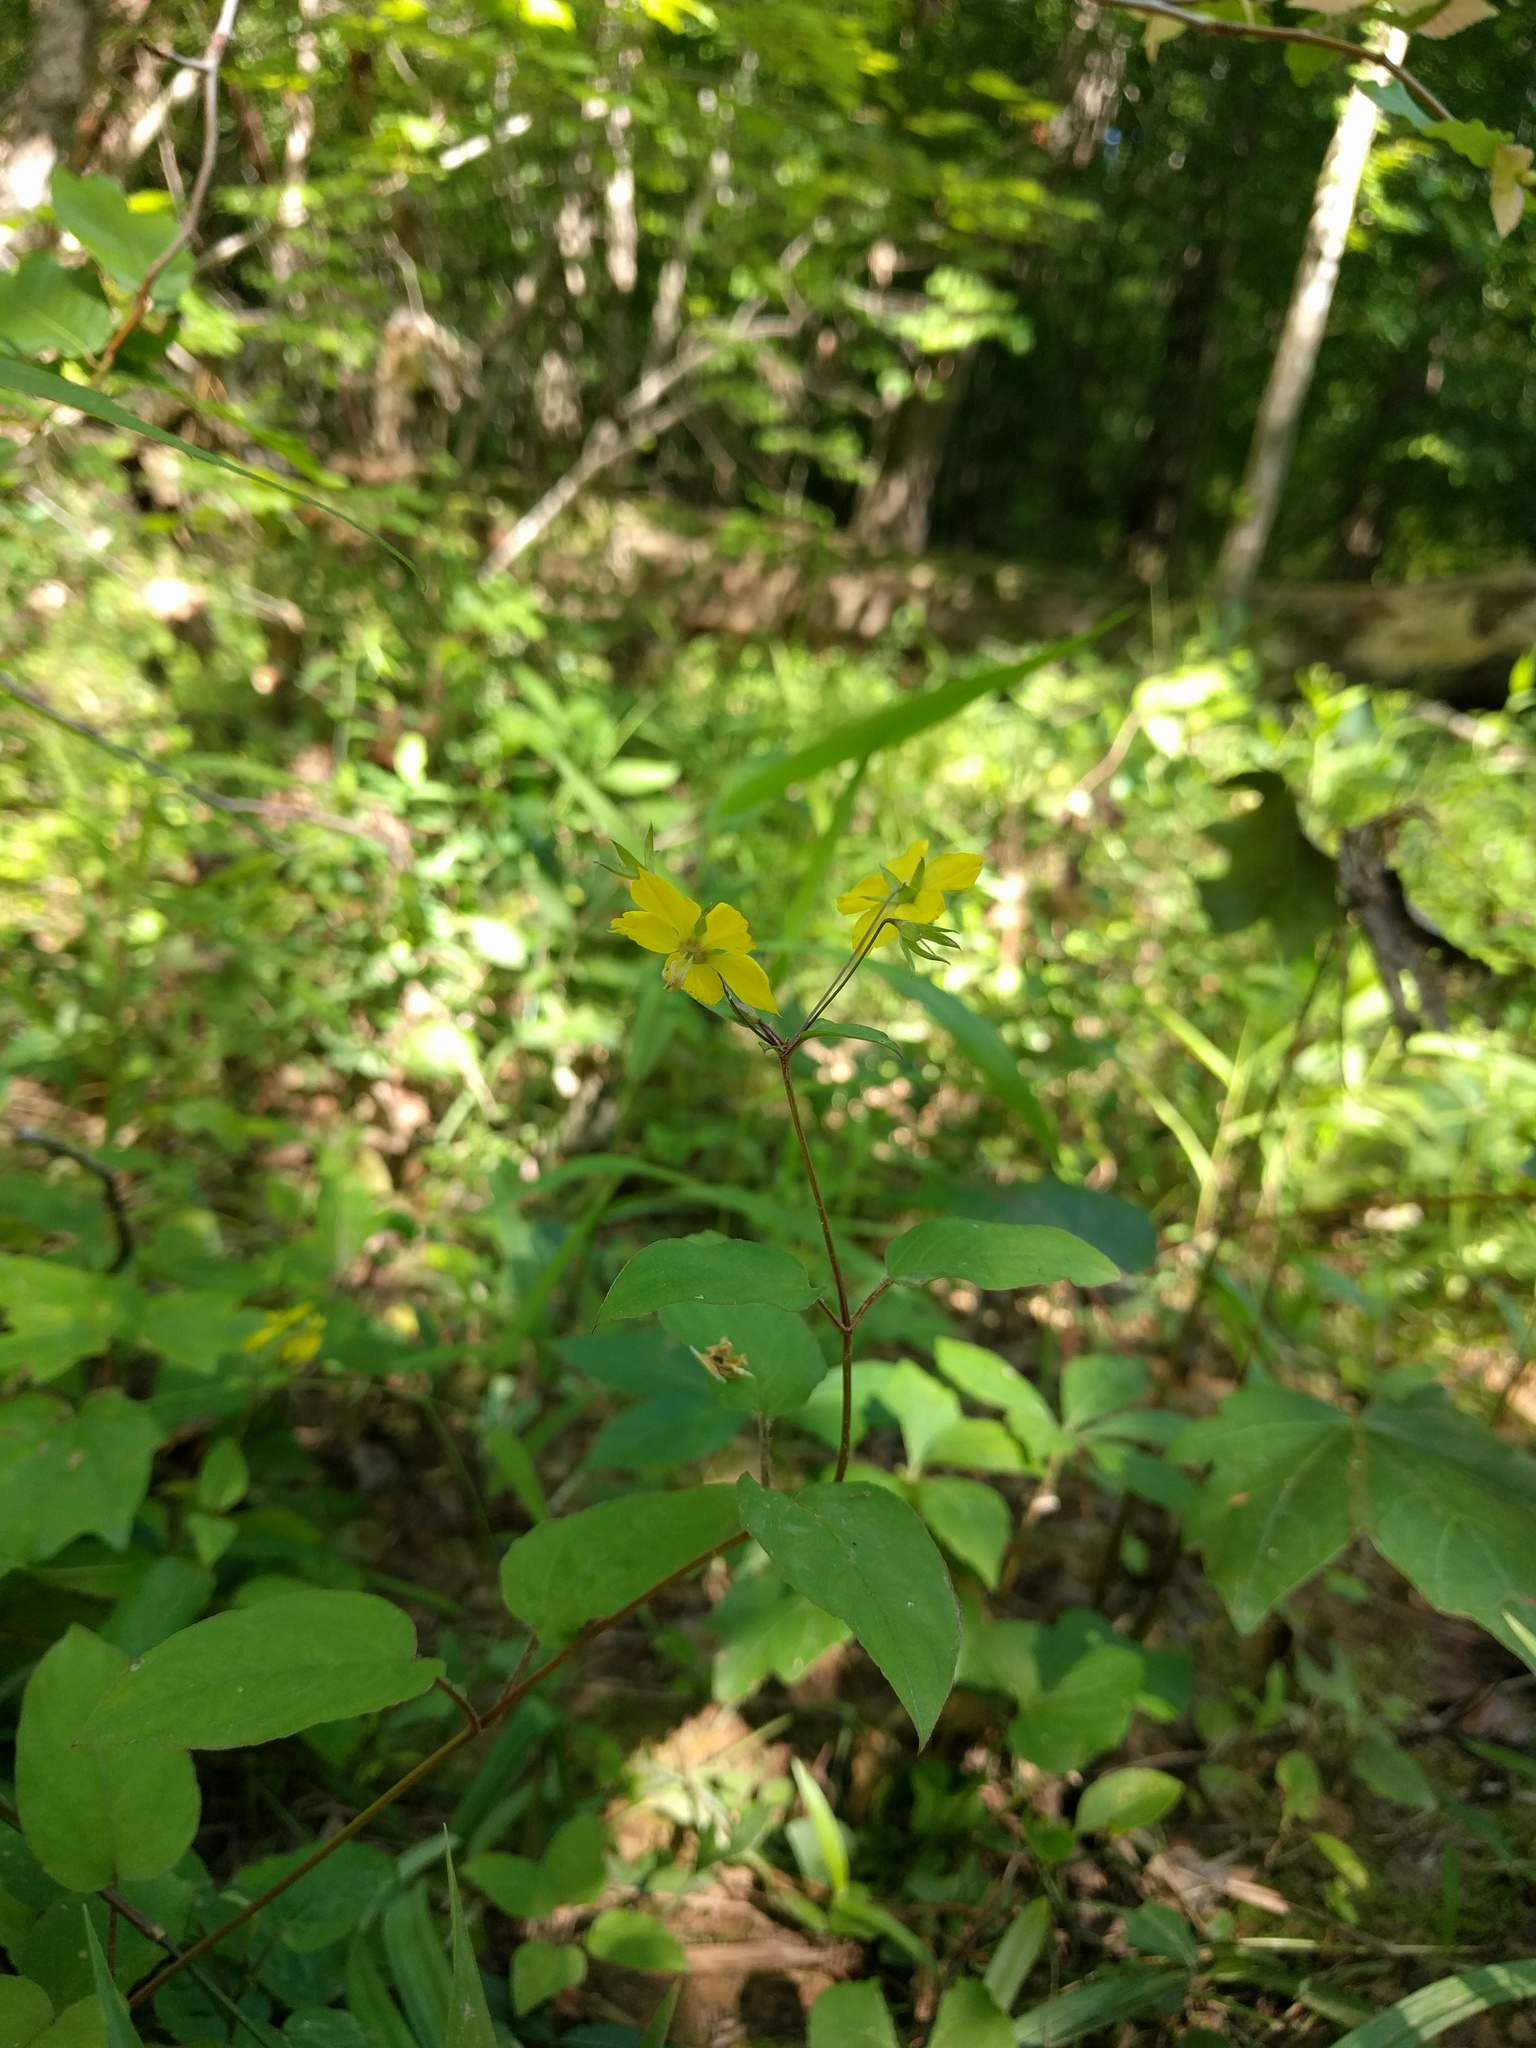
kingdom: Plantae
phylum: Tracheophyta
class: Magnoliopsida
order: Ericales
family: Primulaceae
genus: Lysimachia
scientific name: Lysimachia ciliata
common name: Fringed loosestrife
